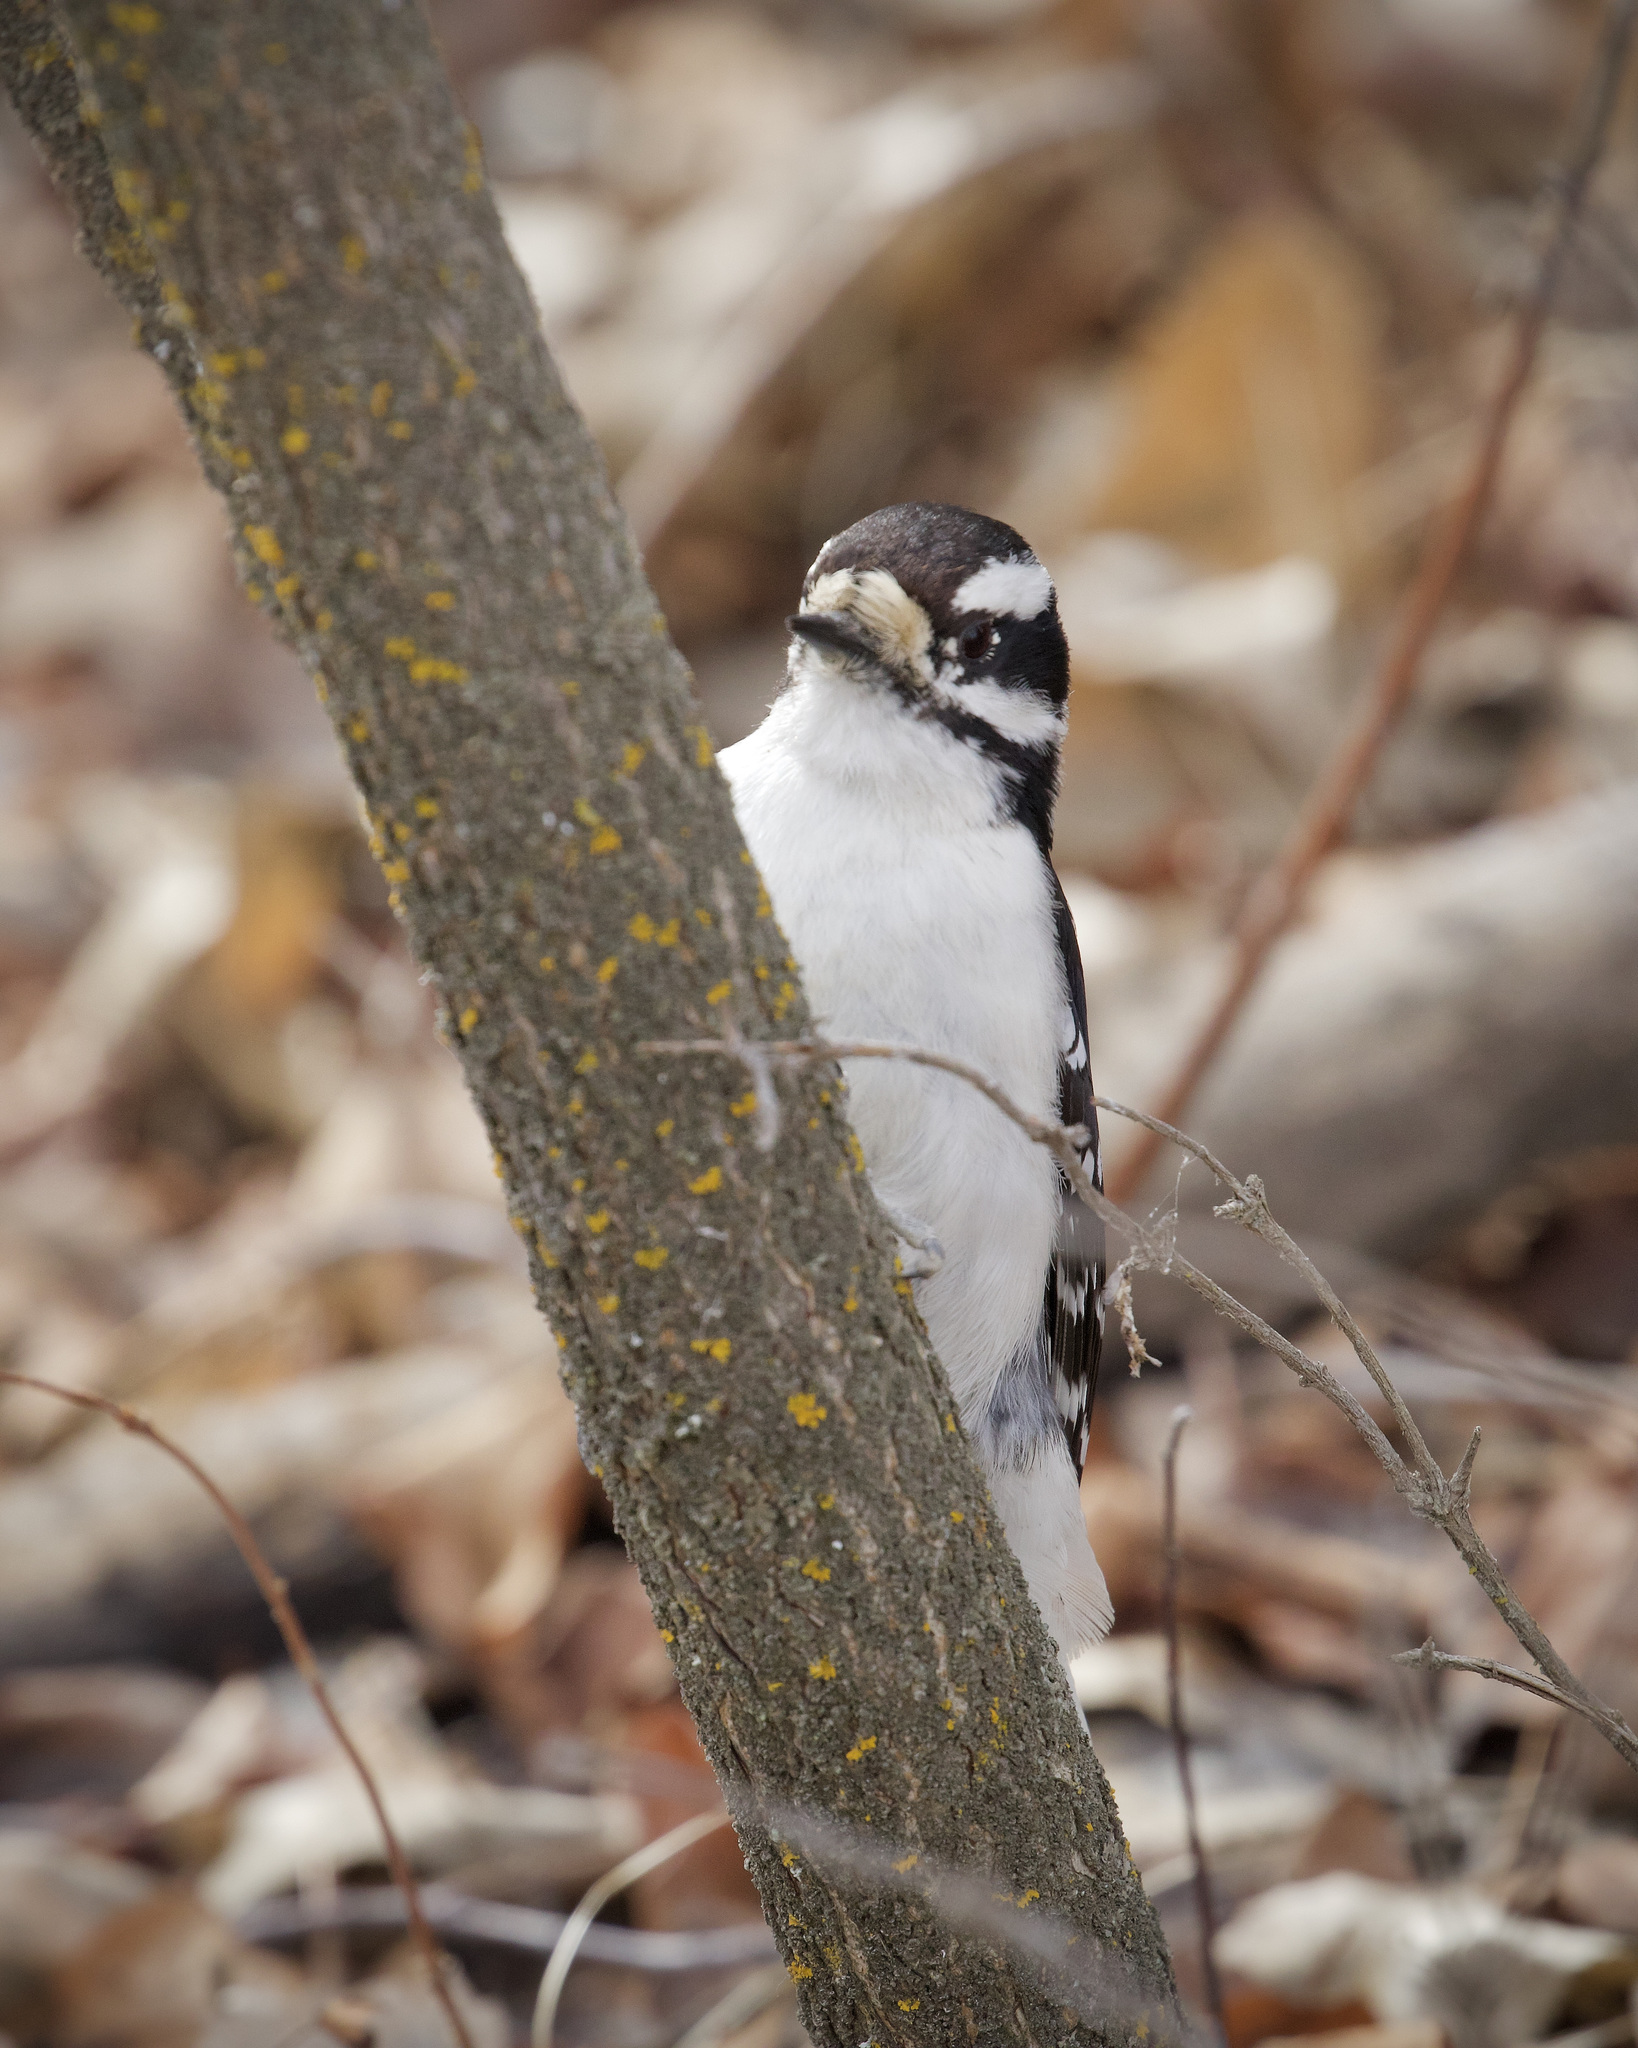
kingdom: Animalia
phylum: Chordata
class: Aves
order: Piciformes
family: Picidae
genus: Dryobates
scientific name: Dryobates pubescens
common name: Downy woodpecker
